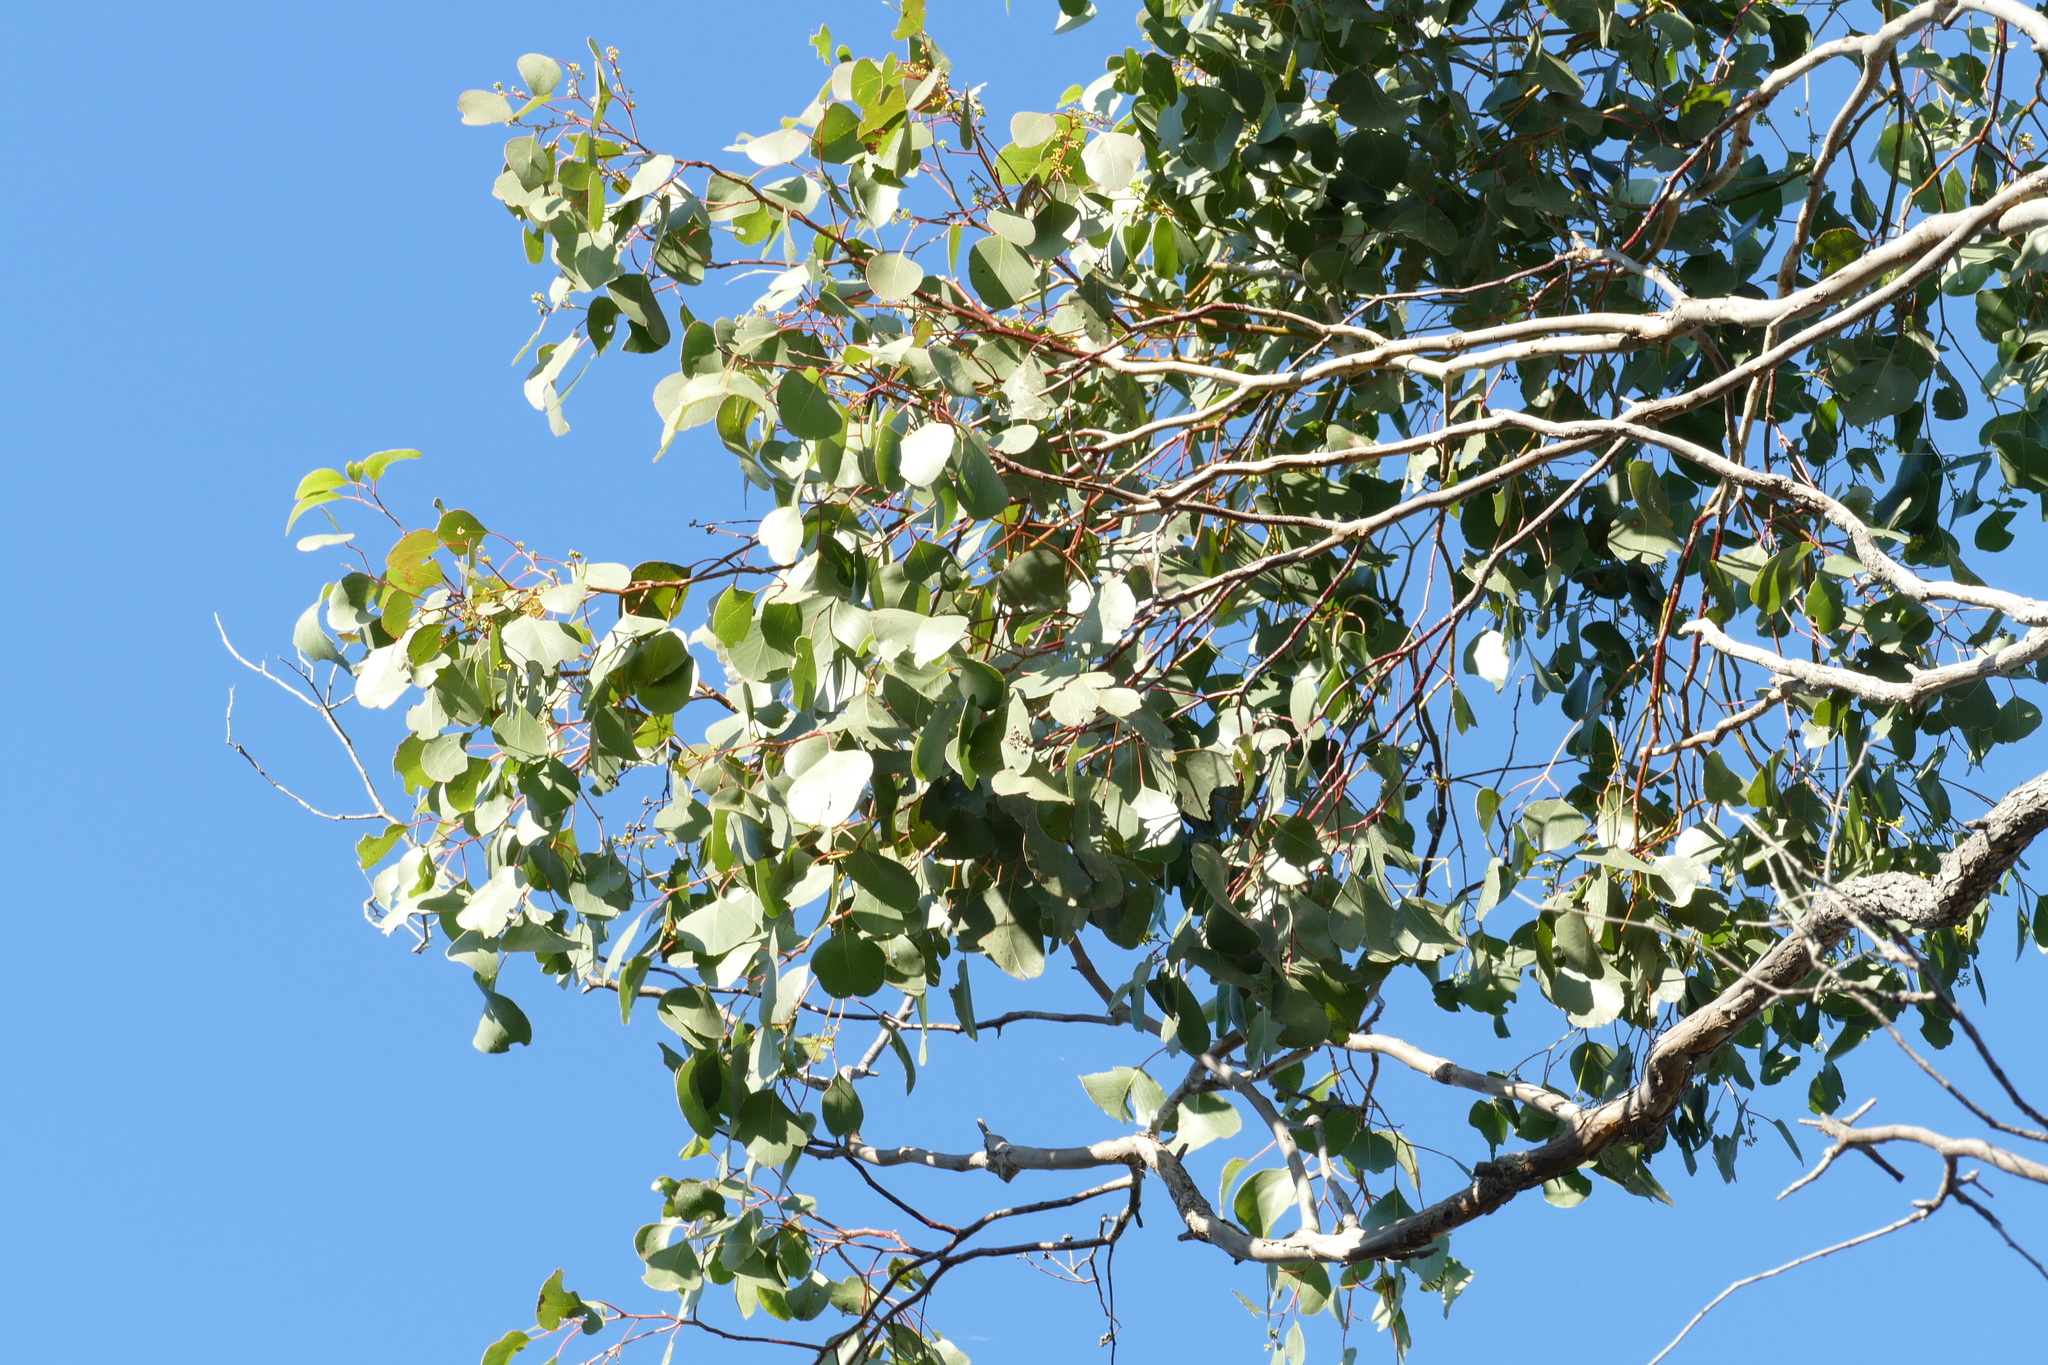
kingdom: Plantae
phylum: Tracheophyta
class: Magnoliopsida
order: Myrtales
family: Myrtaceae
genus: Eucalyptus
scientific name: Eucalyptus populnea
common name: Bimble box
